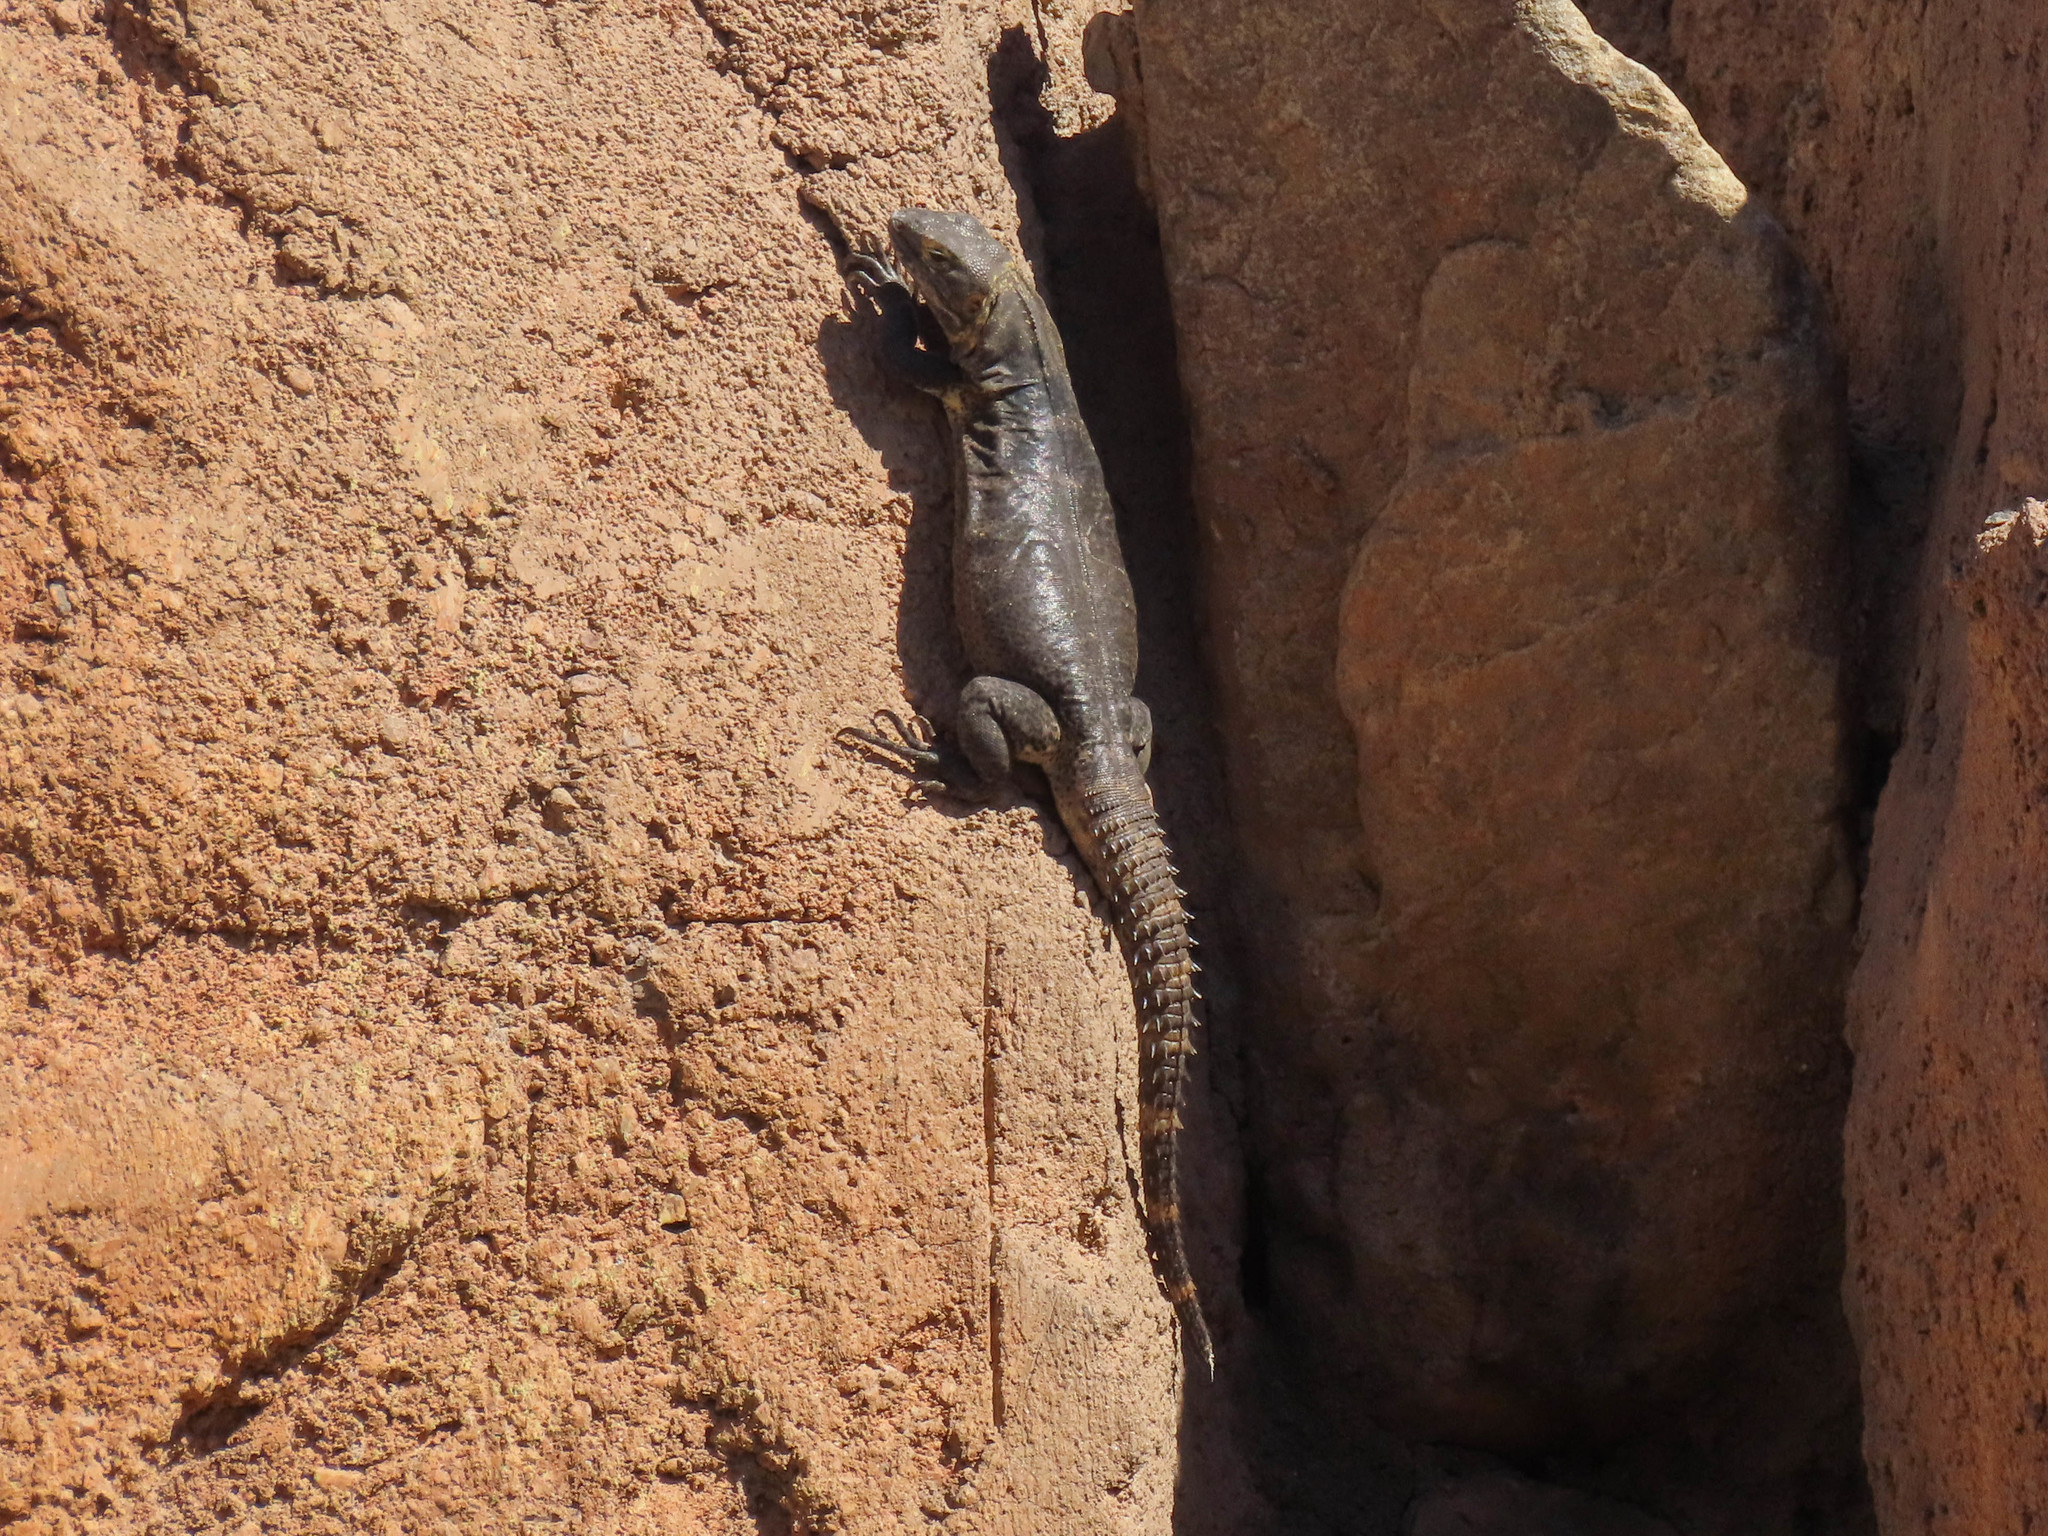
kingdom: Animalia
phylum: Chordata
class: Squamata
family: Iguanidae
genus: Ctenosaura
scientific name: Ctenosaura
